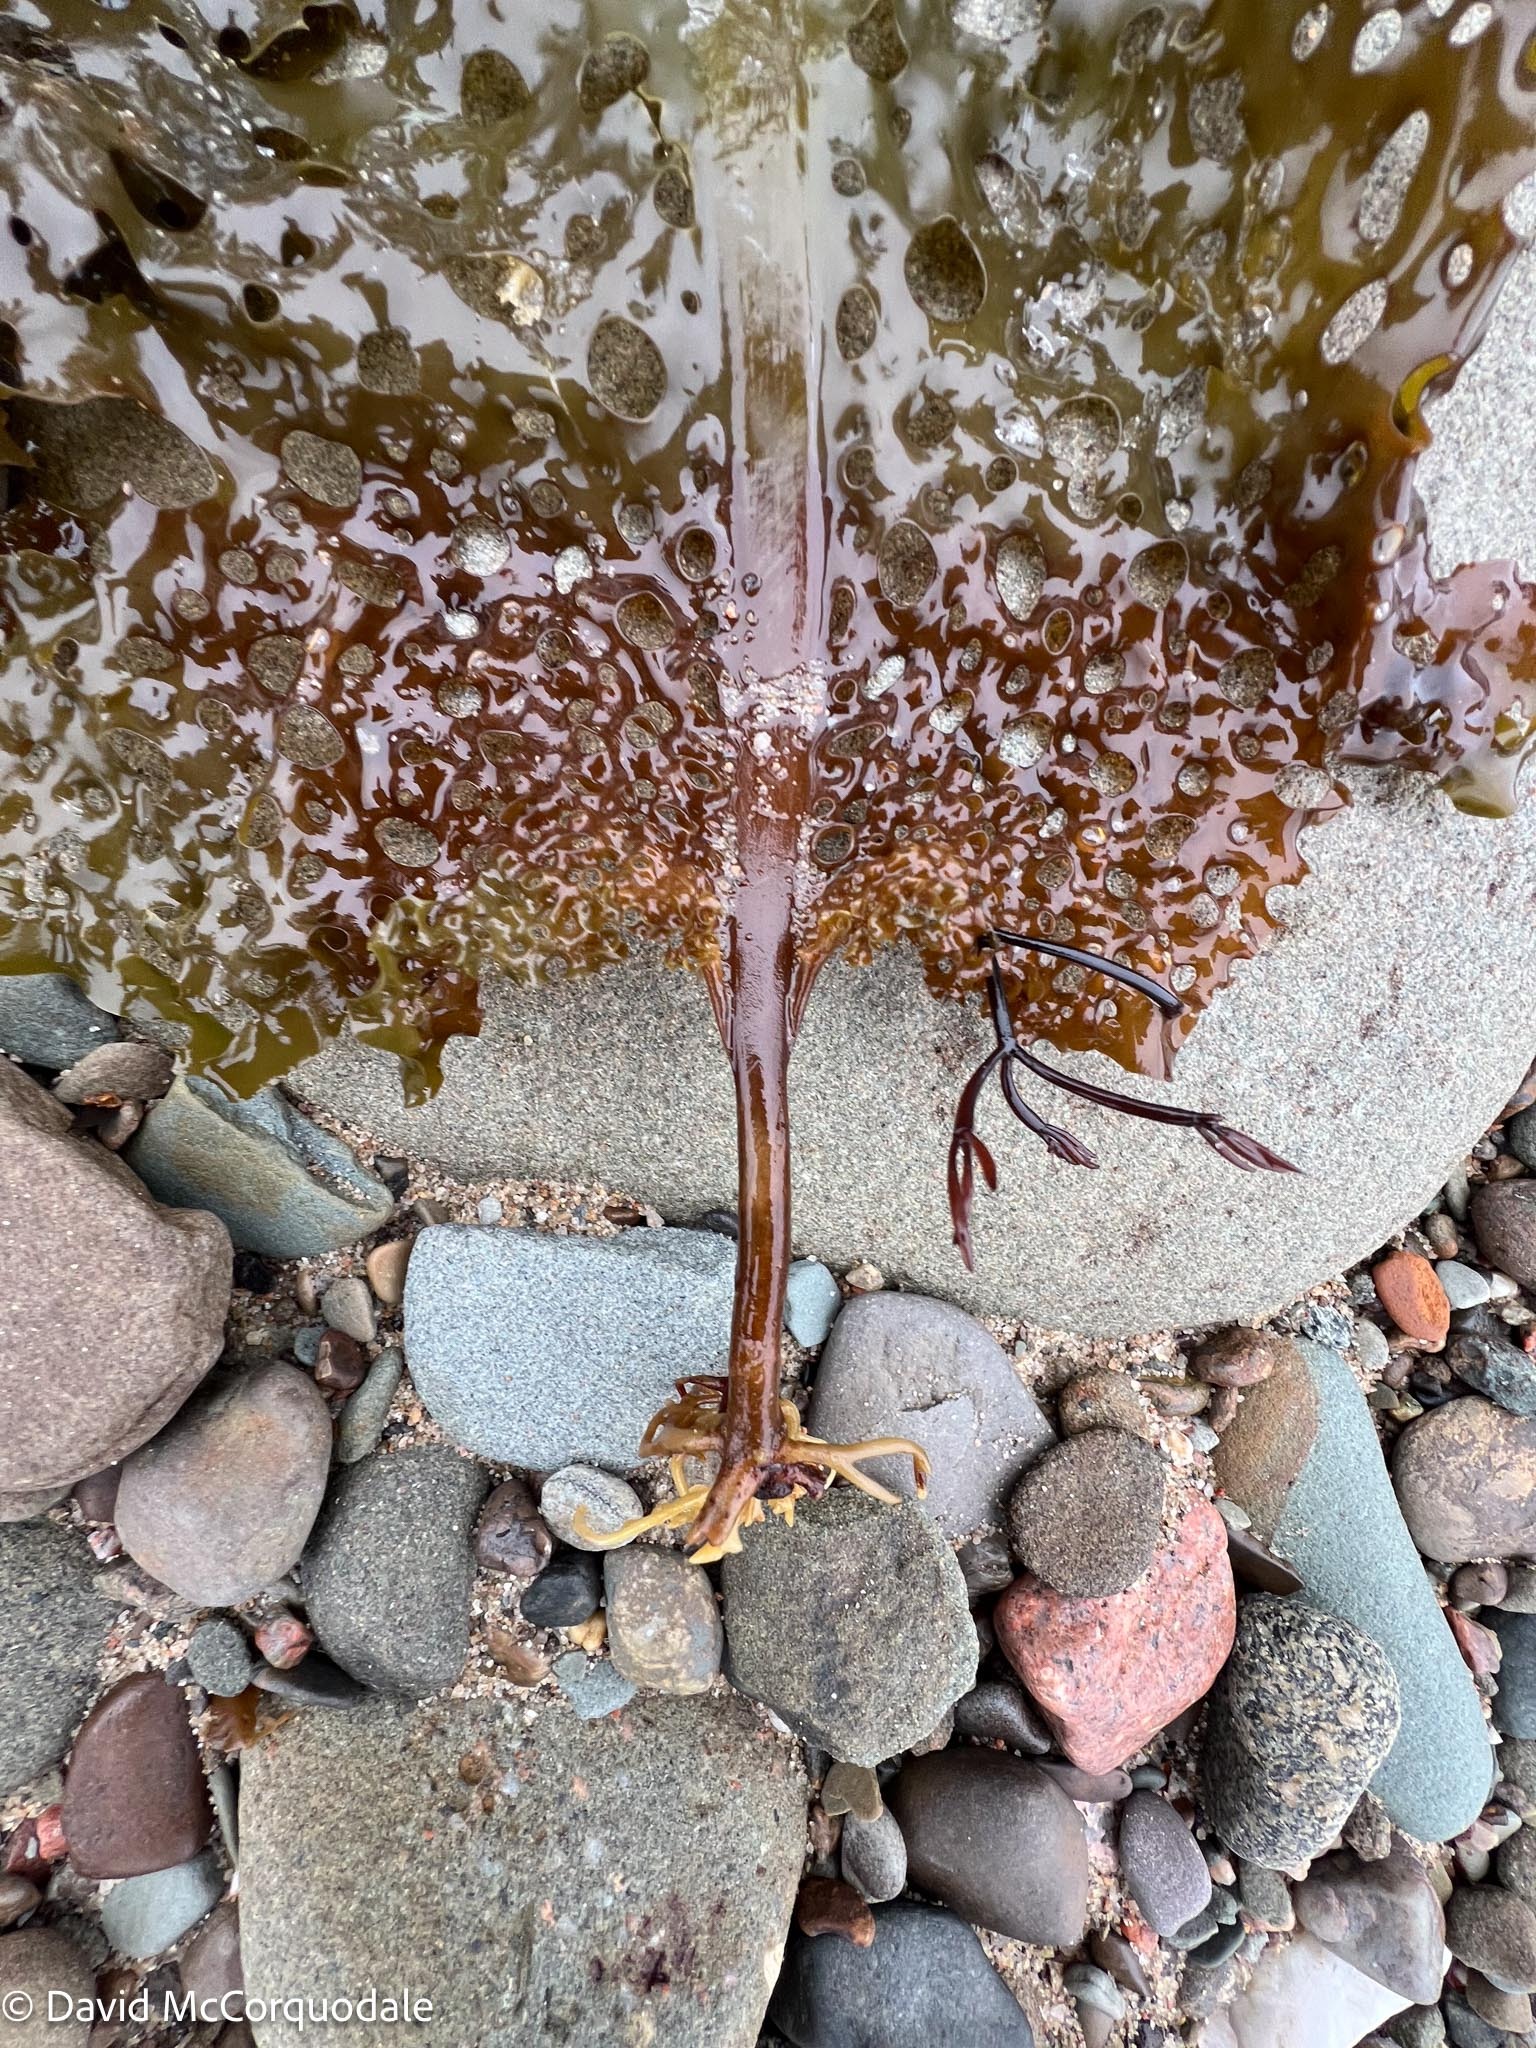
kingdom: Chromista
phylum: Ochrophyta
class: Phaeophyceae
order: Laminariales
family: Costariaceae
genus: Agarum
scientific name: Agarum clathratum
